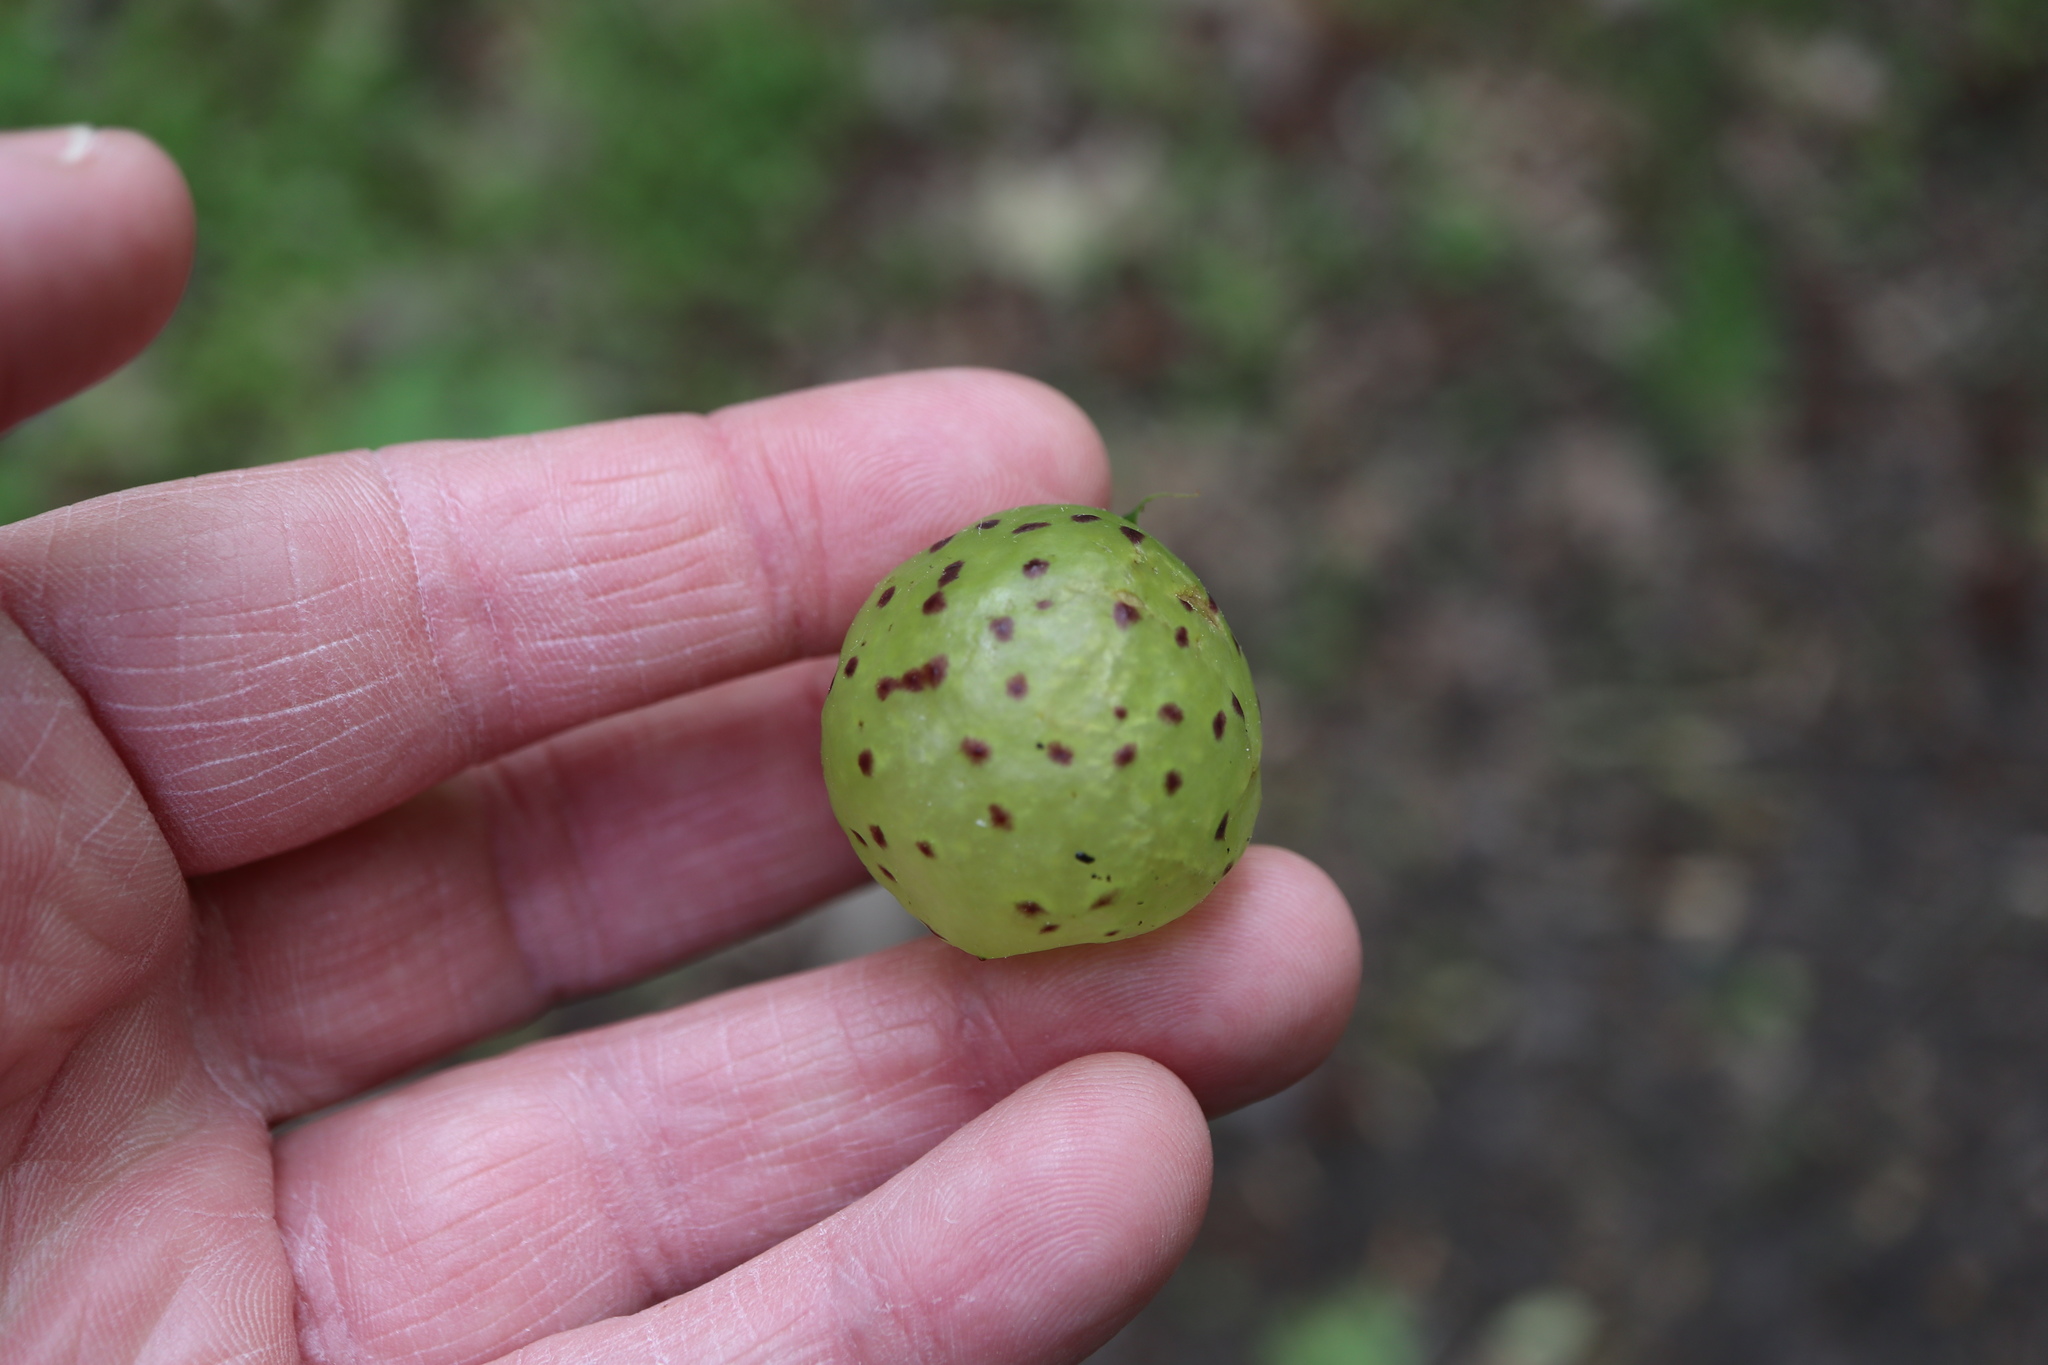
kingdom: Animalia
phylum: Arthropoda
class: Insecta
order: Hymenoptera
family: Cynipidae
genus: Amphibolips
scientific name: Amphibolips
